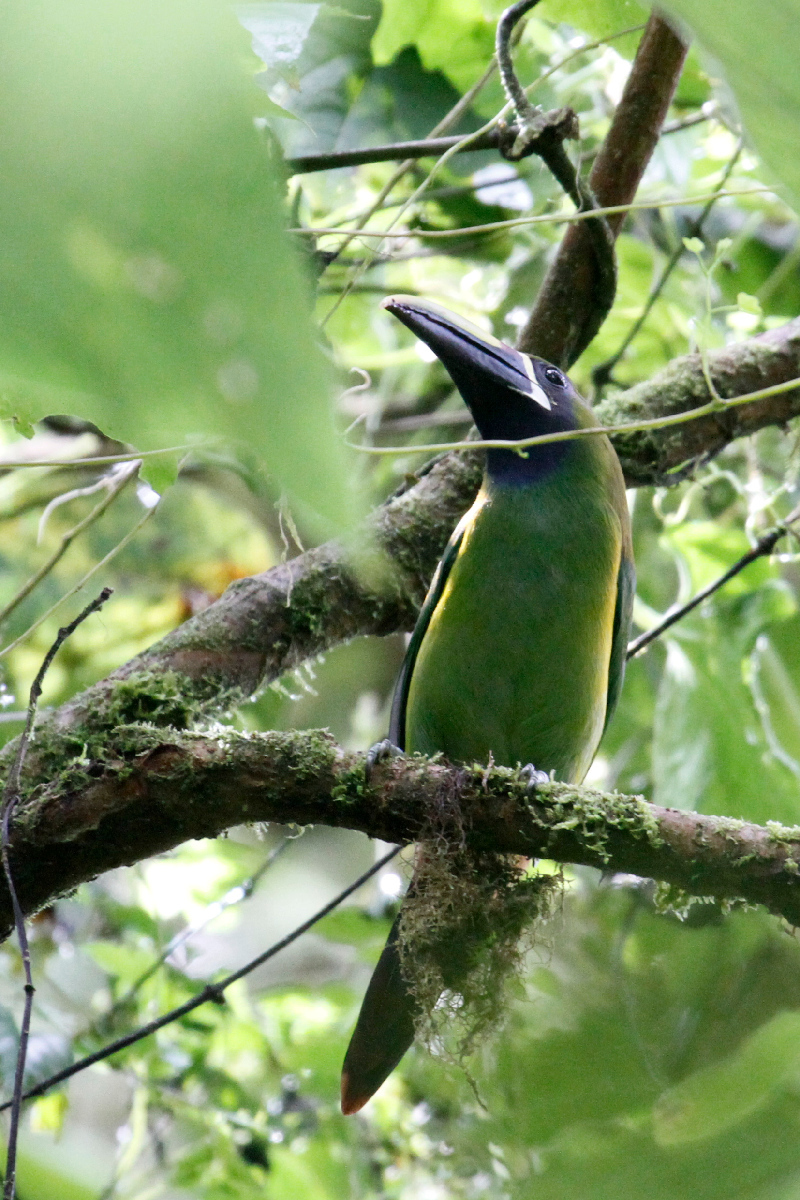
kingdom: Animalia
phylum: Chordata
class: Aves
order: Piciformes
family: Ramphastidae
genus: Aulacorhynchus
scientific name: Aulacorhynchus prasinus
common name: Emerald toucanet
